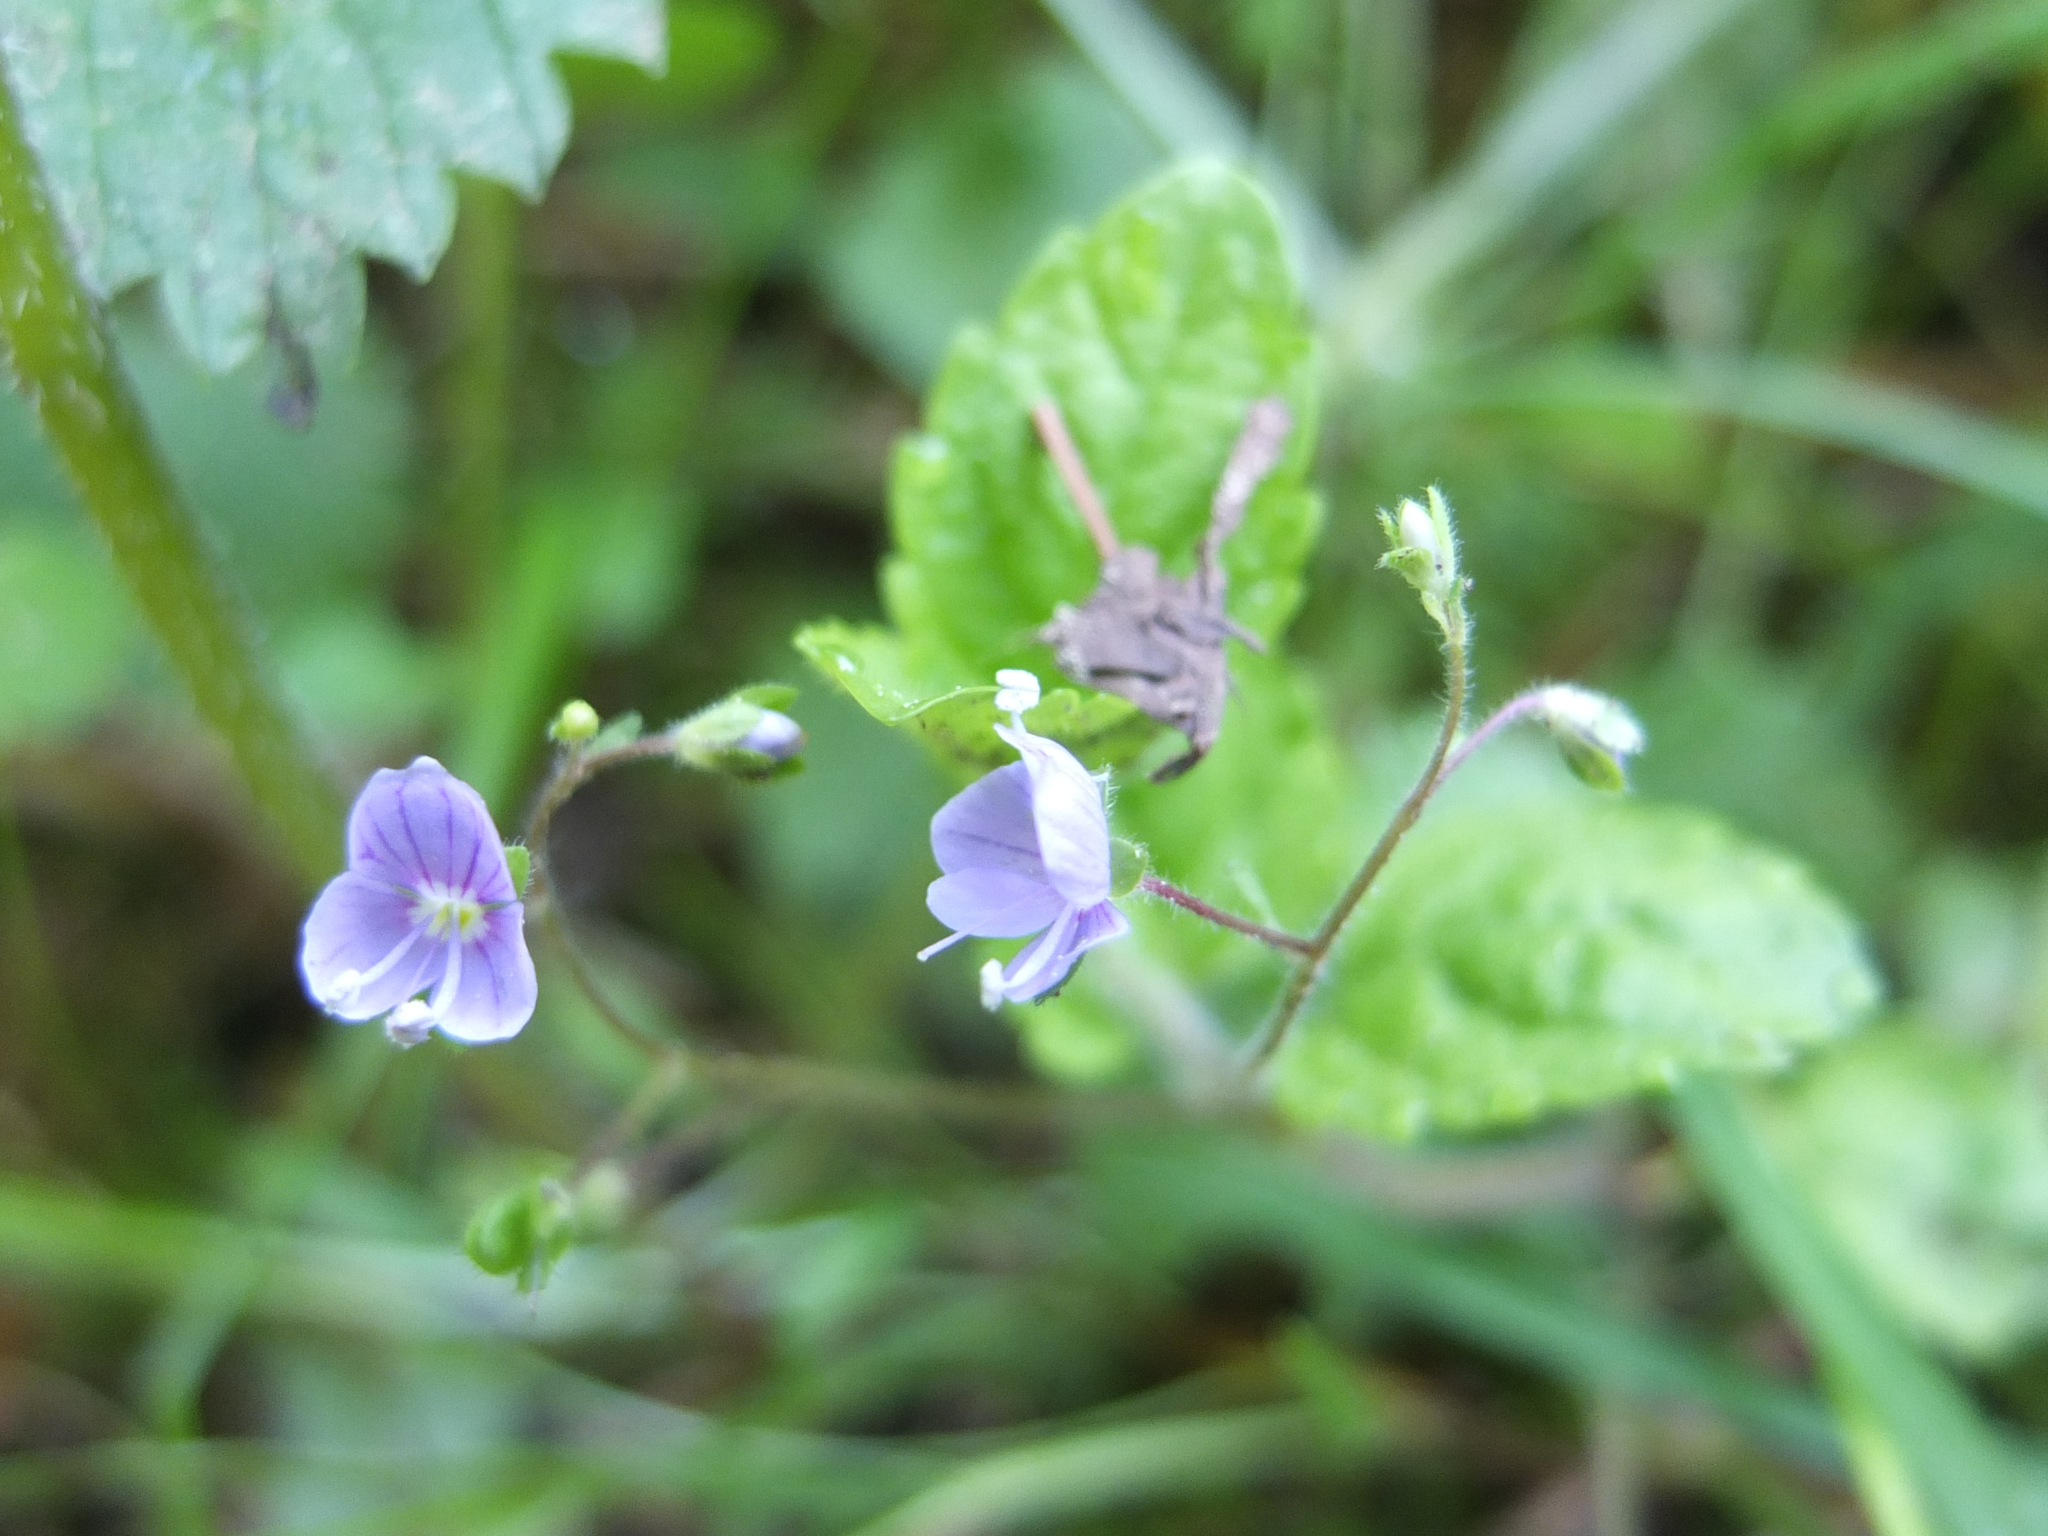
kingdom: Plantae
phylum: Tracheophyta
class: Magnoliopsida
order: Lamiales
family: Plantaginaceae
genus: Veronica
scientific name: Veronica chamaedrys
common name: Germander speedwell
